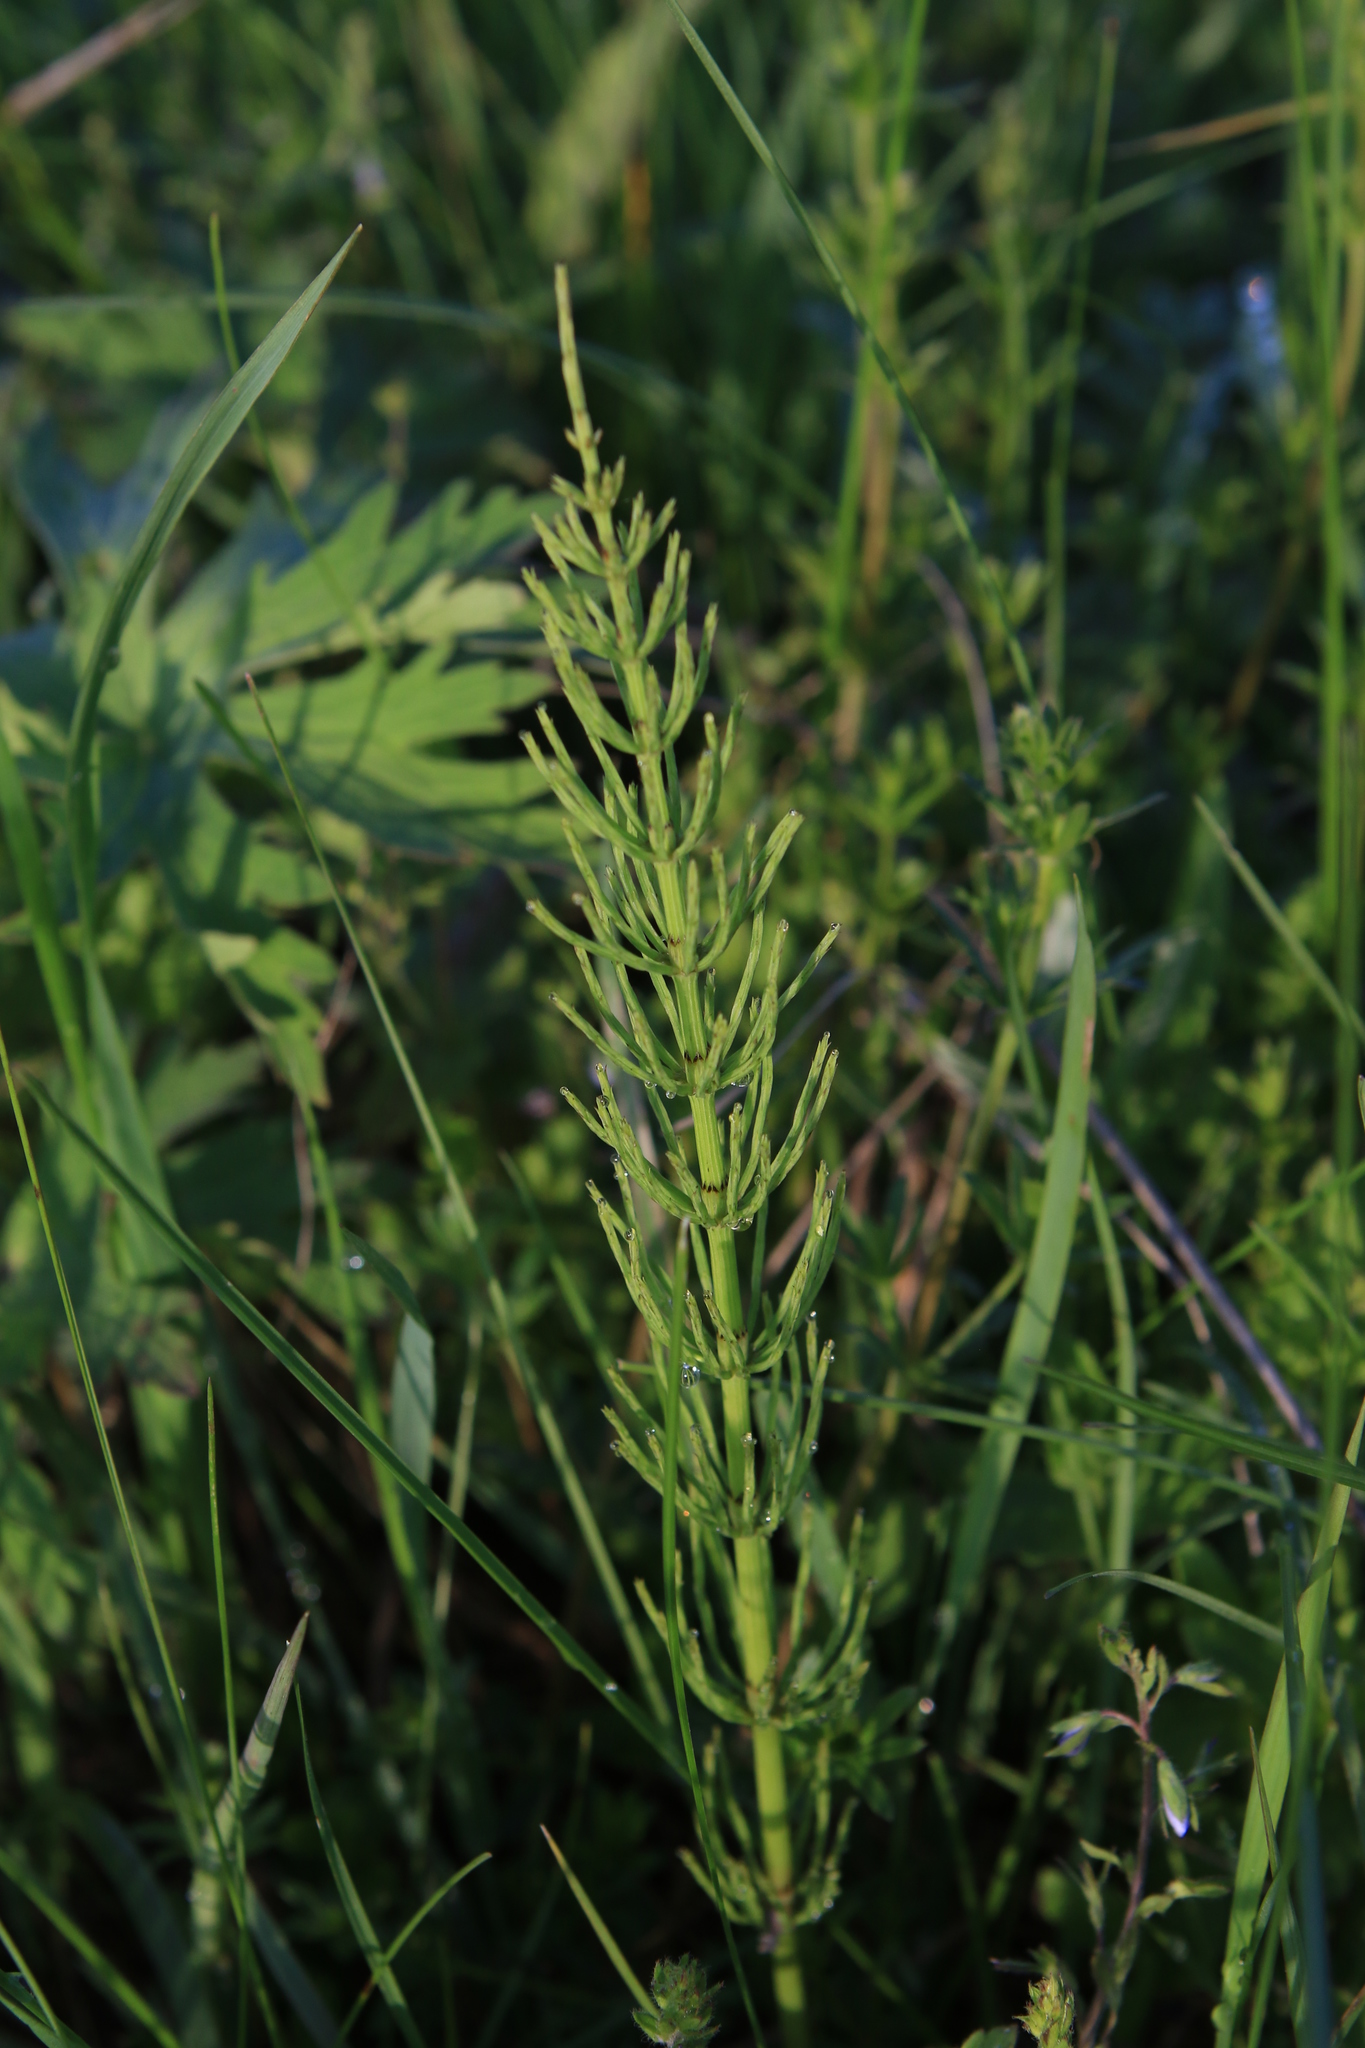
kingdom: Plantae
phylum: Tracheophyta
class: Polypodiopsida
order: Equisetales
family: Equisetaceae
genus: Equisetum
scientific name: Equisetum arvense
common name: Field horsetail
